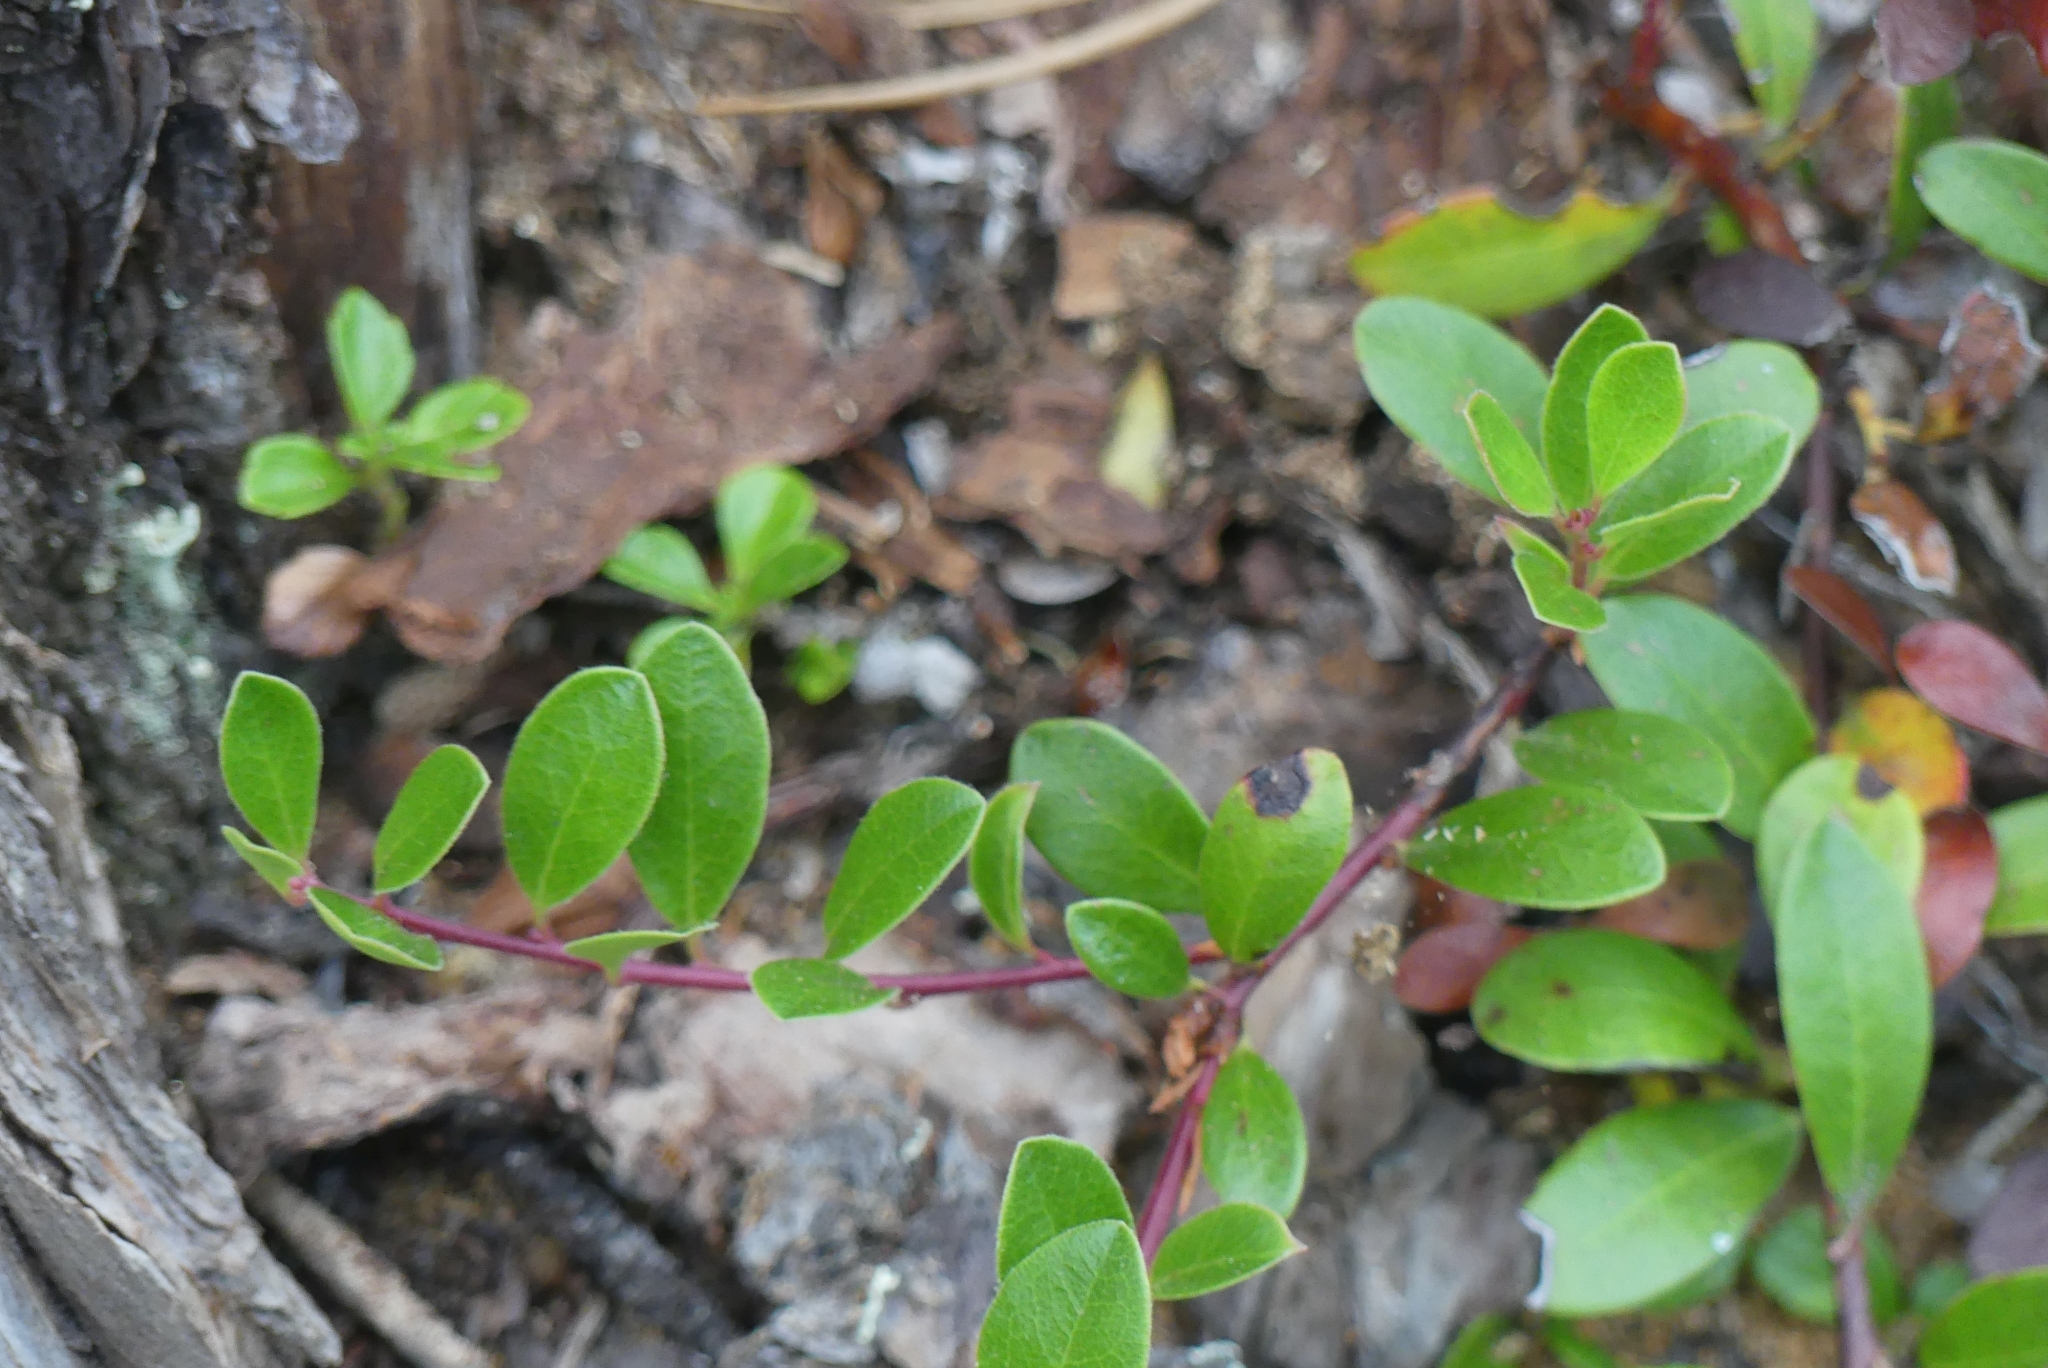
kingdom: Plantae
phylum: Tracheophyta
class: Magnoliopsida
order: Ericales
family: Ericaceae
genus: Arctostaphylos
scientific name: Arctostaphylos uva-ursi
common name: Bearberry
